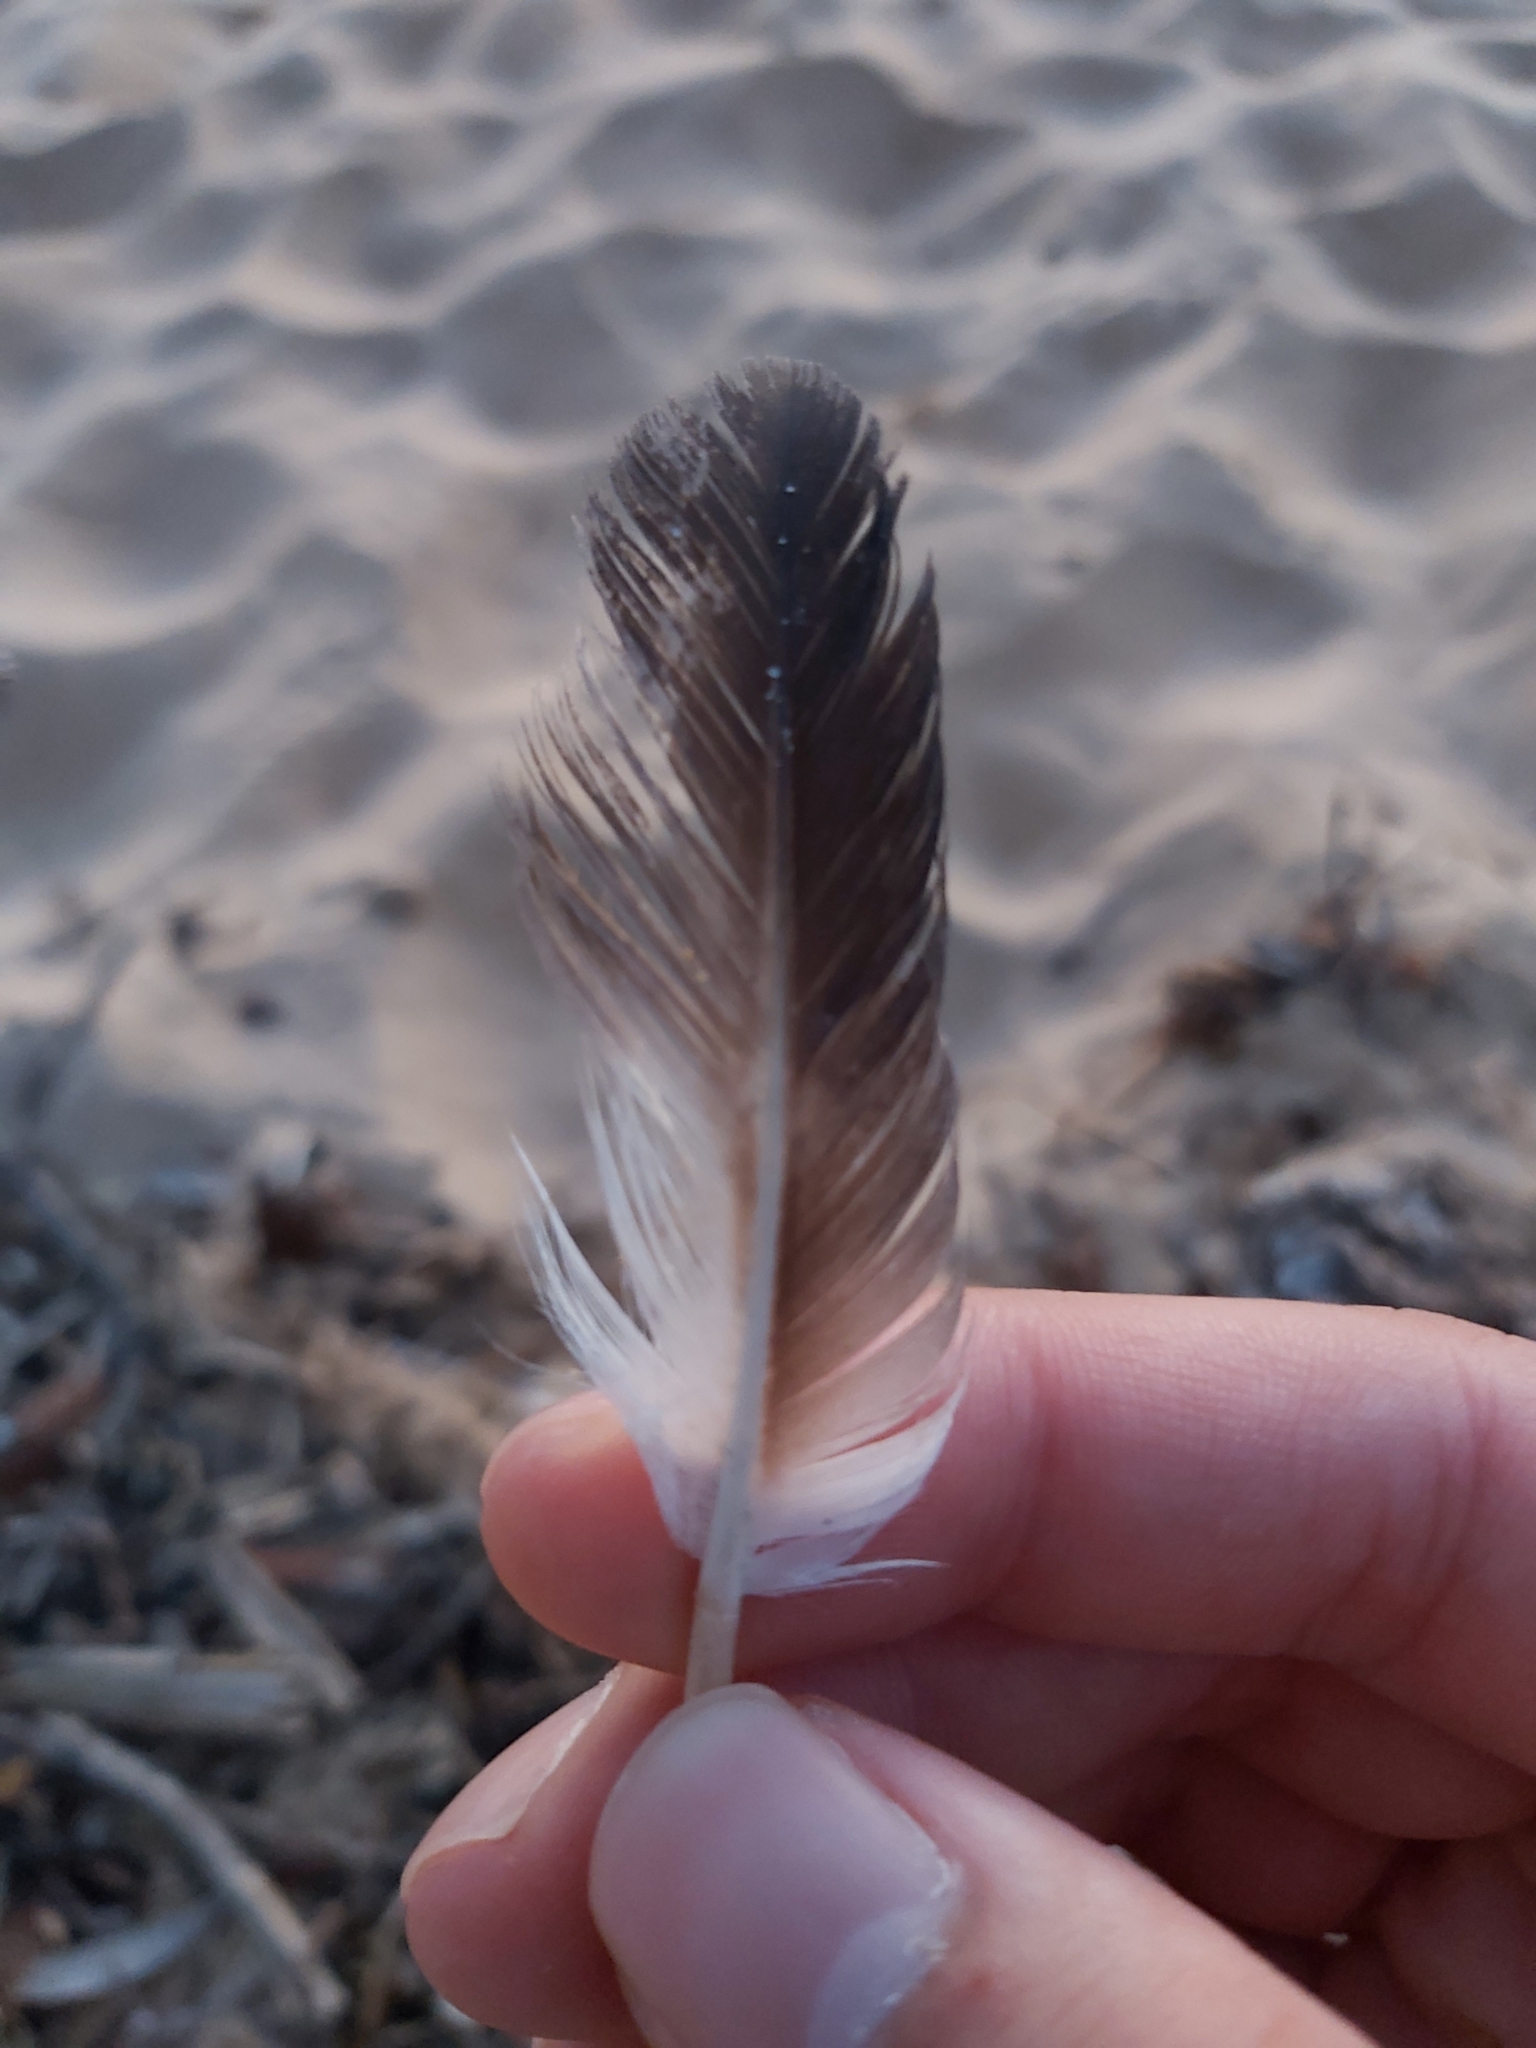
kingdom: Animalia
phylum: Chordata
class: Aves
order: Suliformes
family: Sulidae
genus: Morus
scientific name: Morus serrator
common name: Australasian gannet
